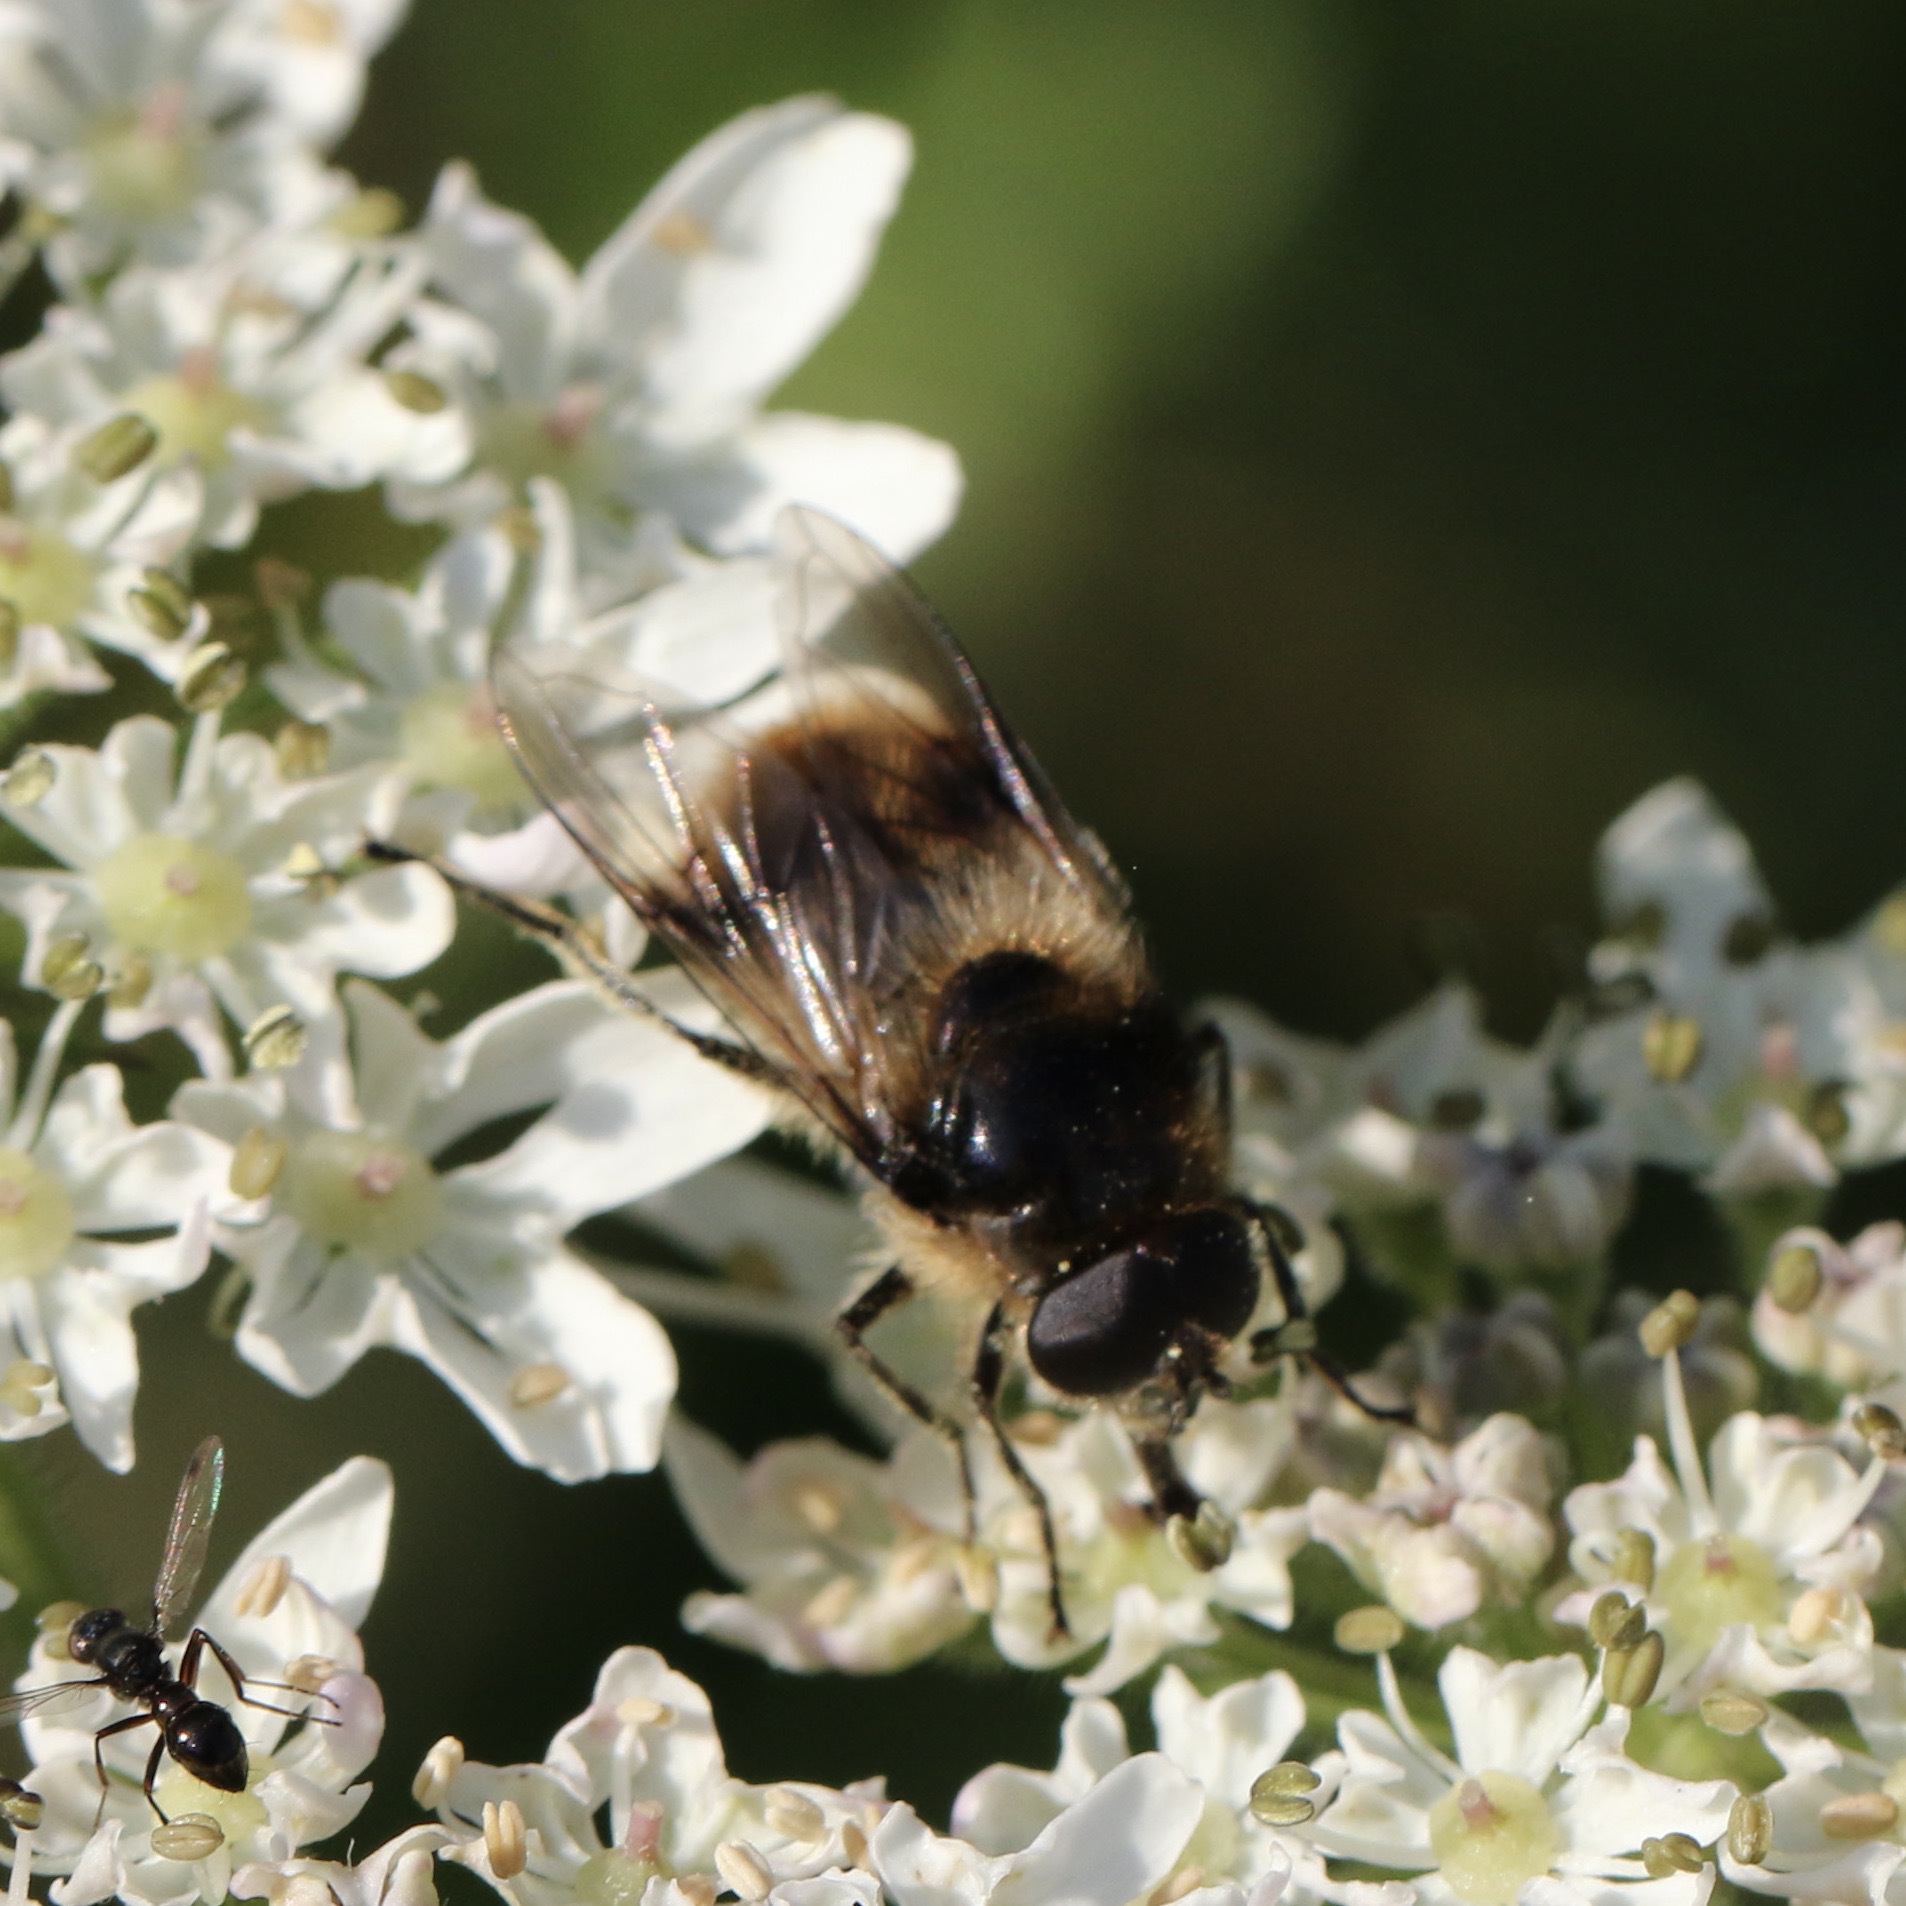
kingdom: Animalia
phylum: Arthropoda
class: Insecta
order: Diptera
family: Syrphidae
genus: Cheilosia
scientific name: Cheilosia illustrata
